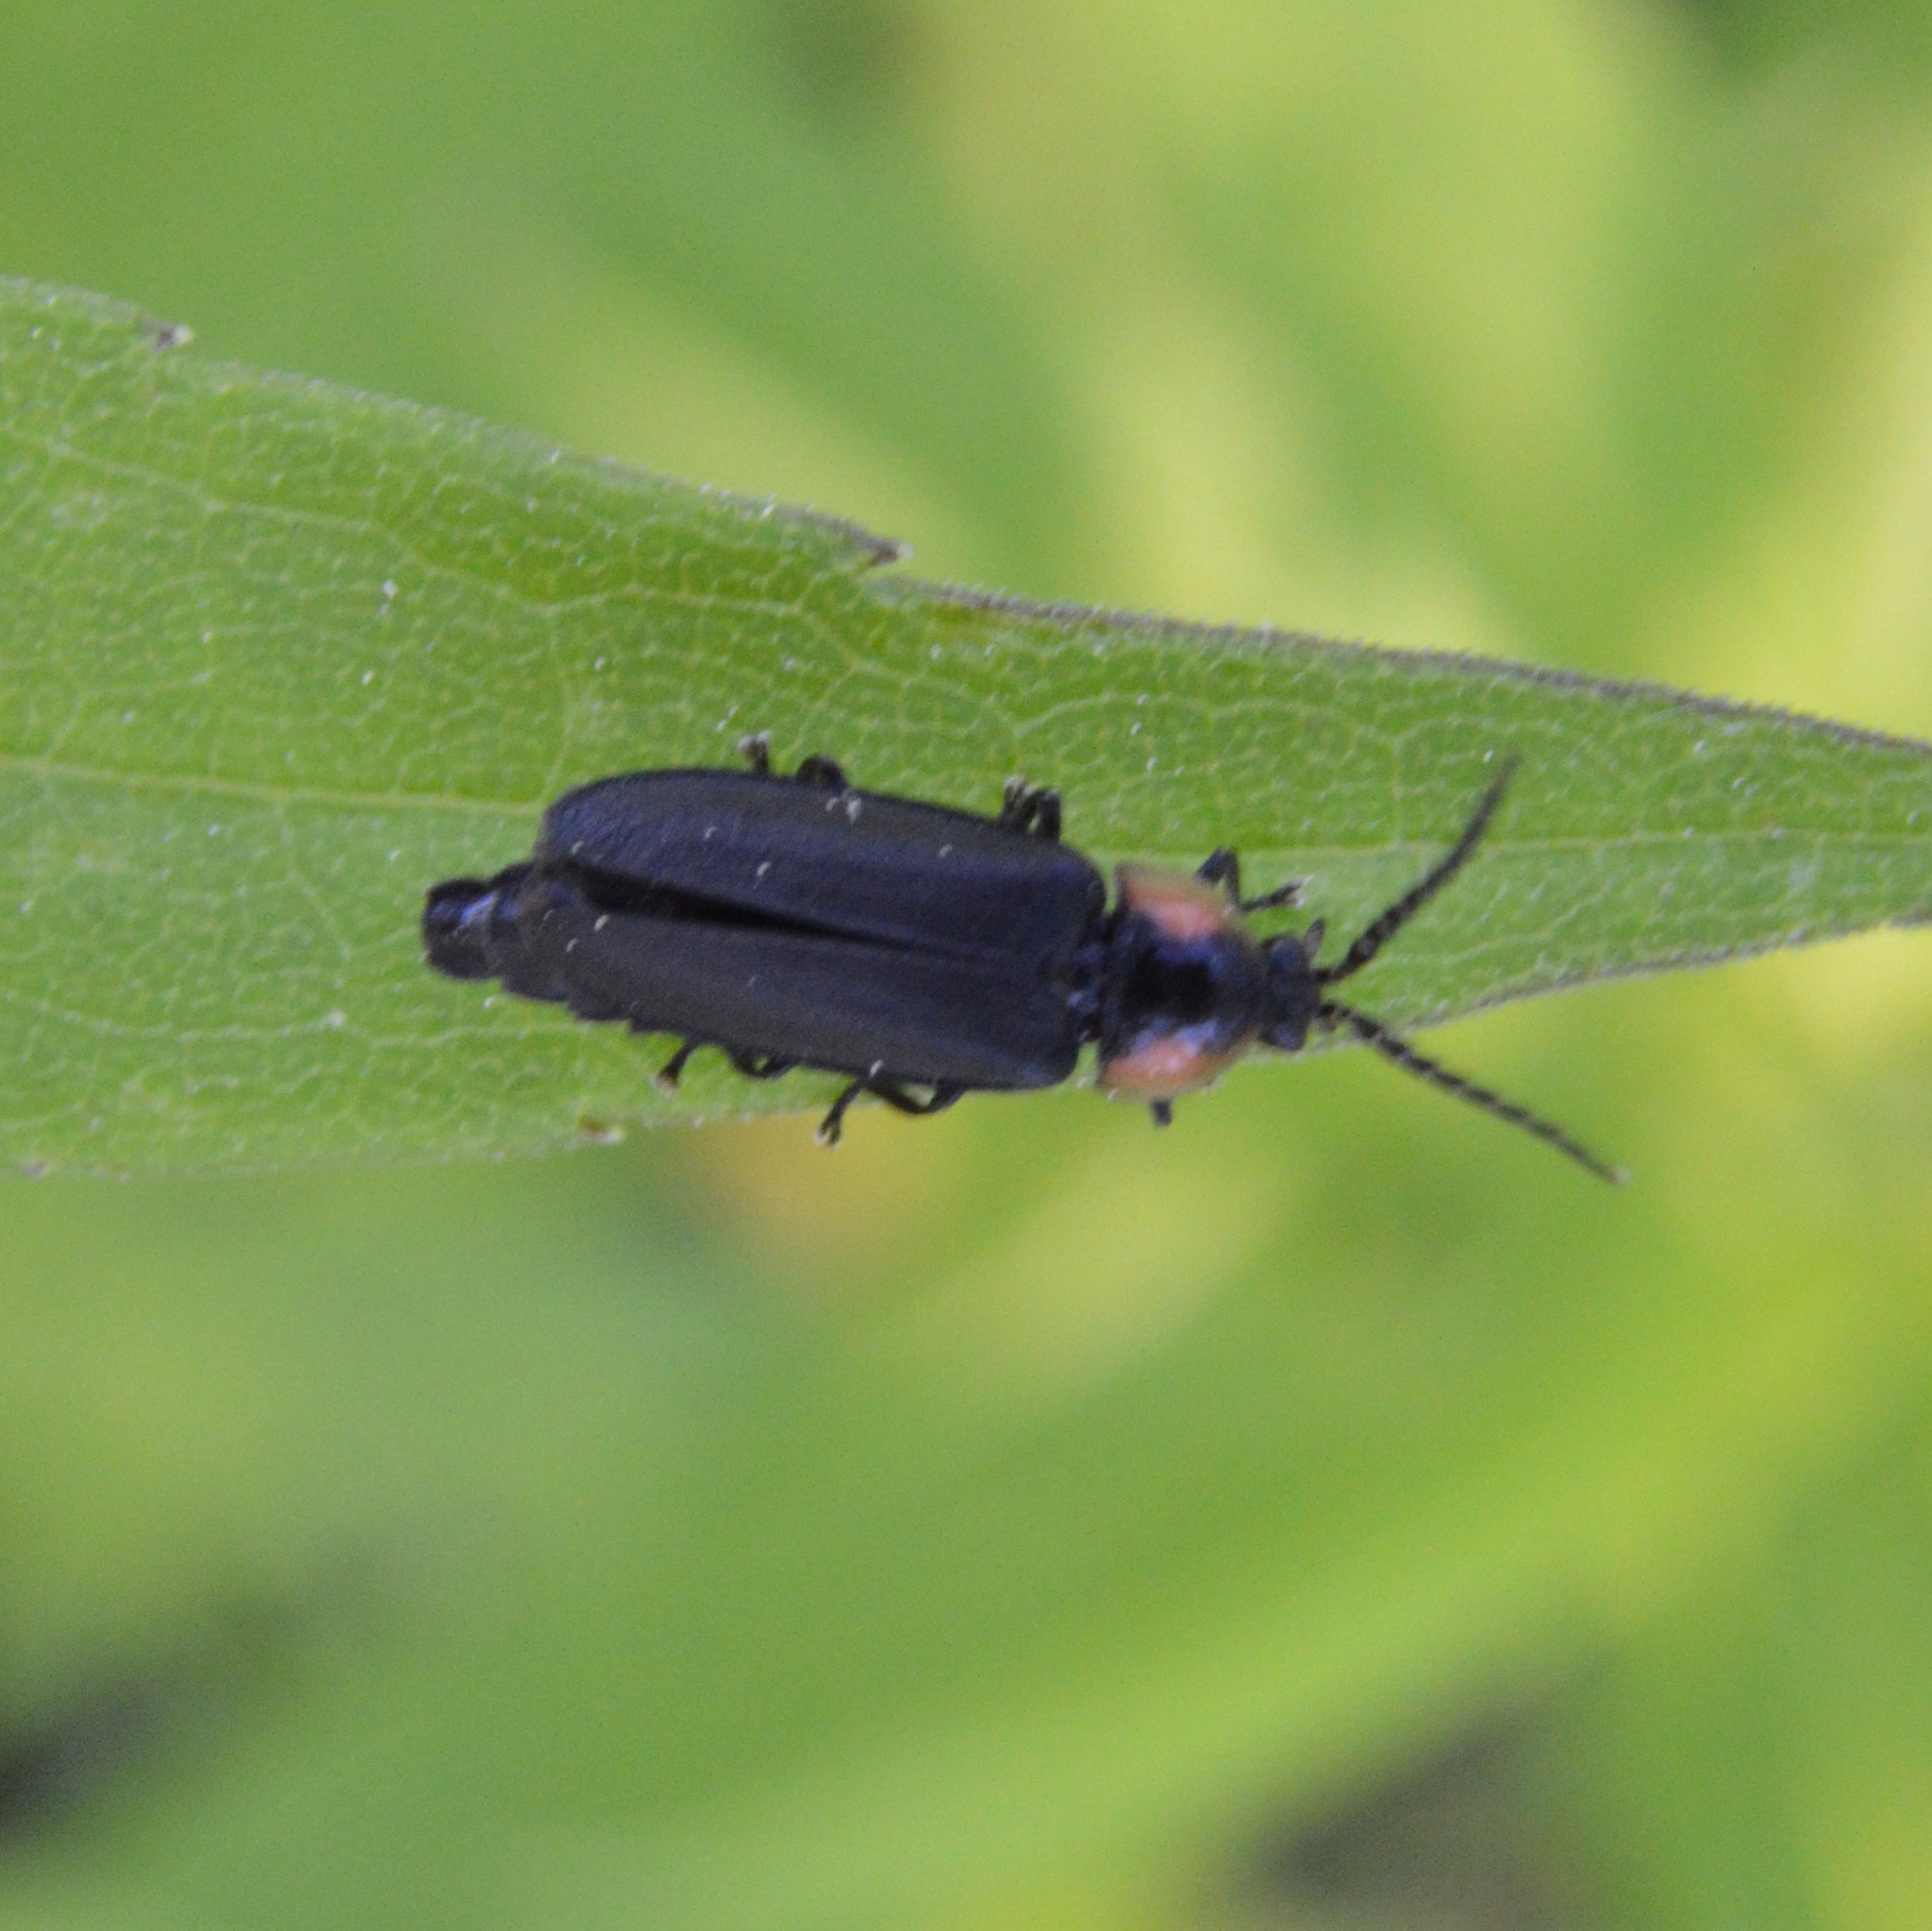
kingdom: Animalia
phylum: Arthropoda
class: Insecta
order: Coleoptera
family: Lampyridae
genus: Pyropyga
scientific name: Pyropyga decipiens
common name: Sneaky elf
